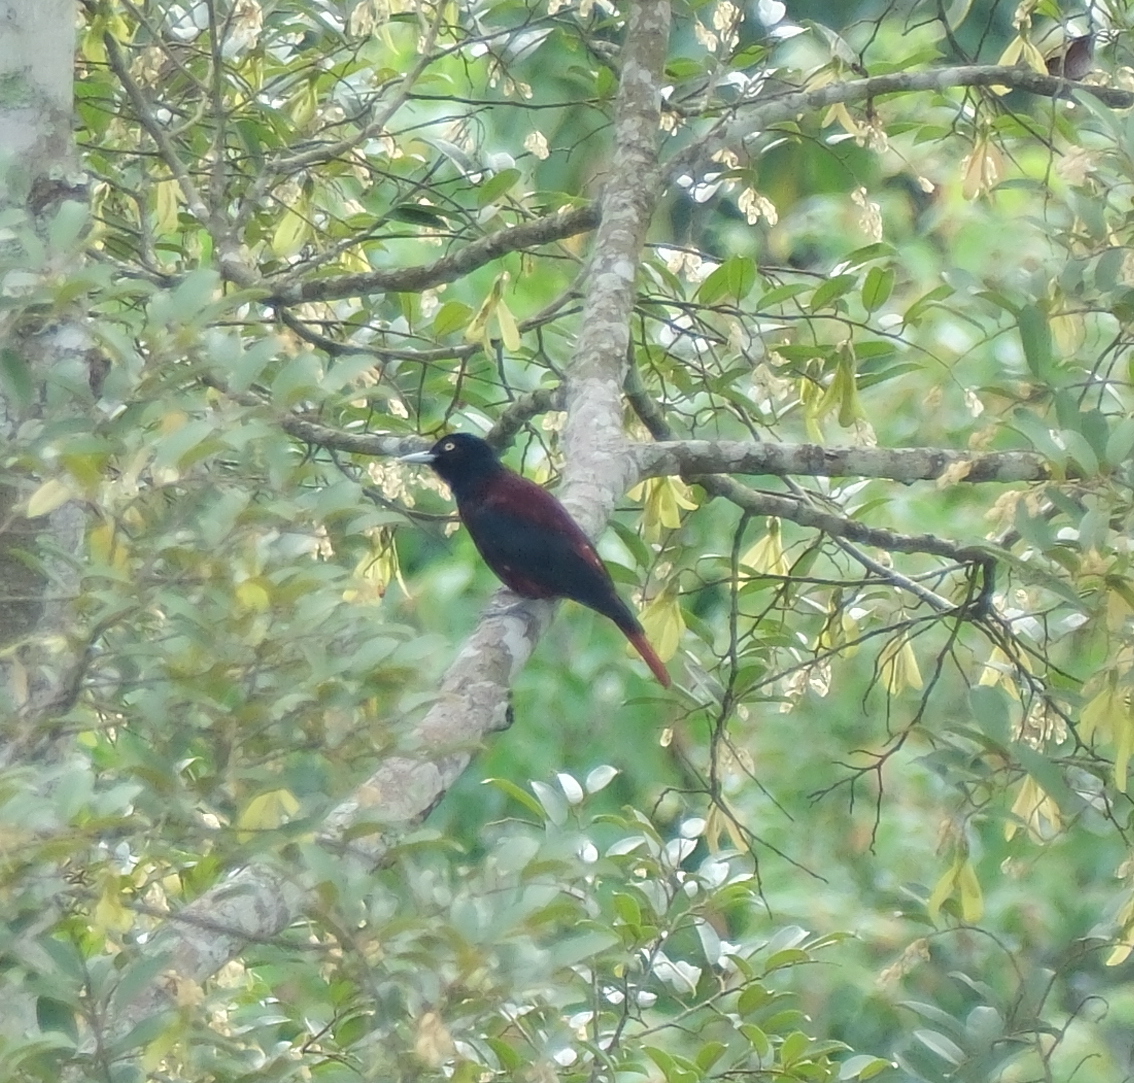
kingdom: Animalia
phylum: Chordata
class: Aves
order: Passeriformes
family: Oriolidae
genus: Oriolus
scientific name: Oriolus traillii
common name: Maroon oriole
